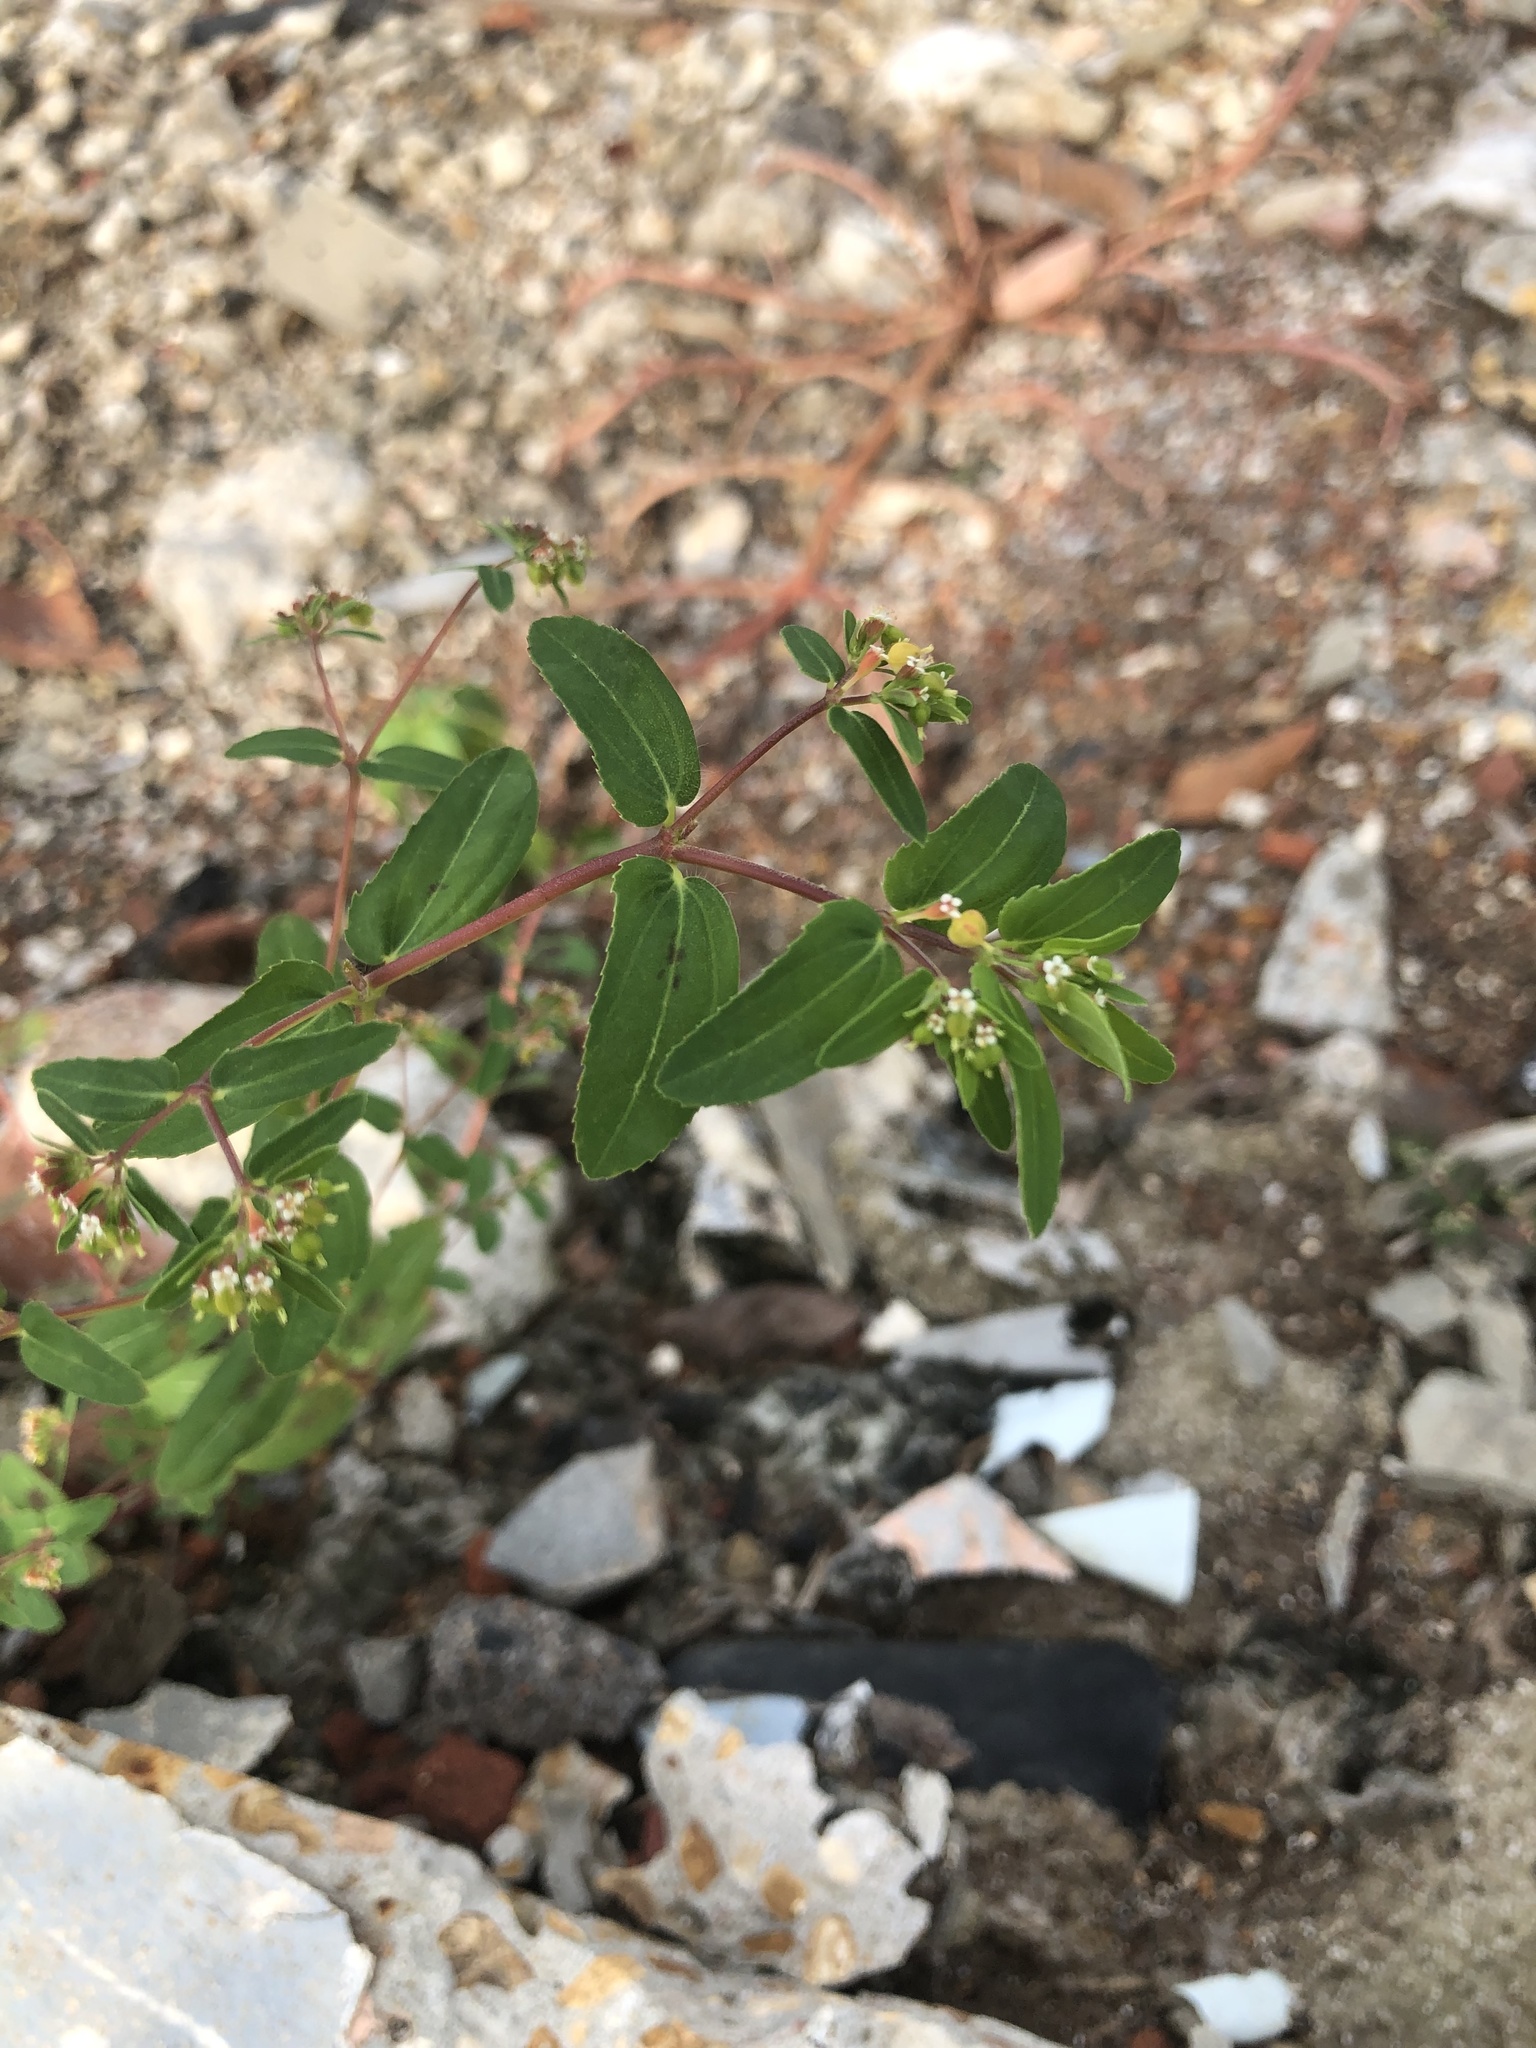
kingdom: Plantae
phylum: Tracheophyta
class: Magnoliopsida
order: Malpighiales
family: Euphorbiaceae
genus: Euphorbia
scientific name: Euphorbia nutans
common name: Eyebane
